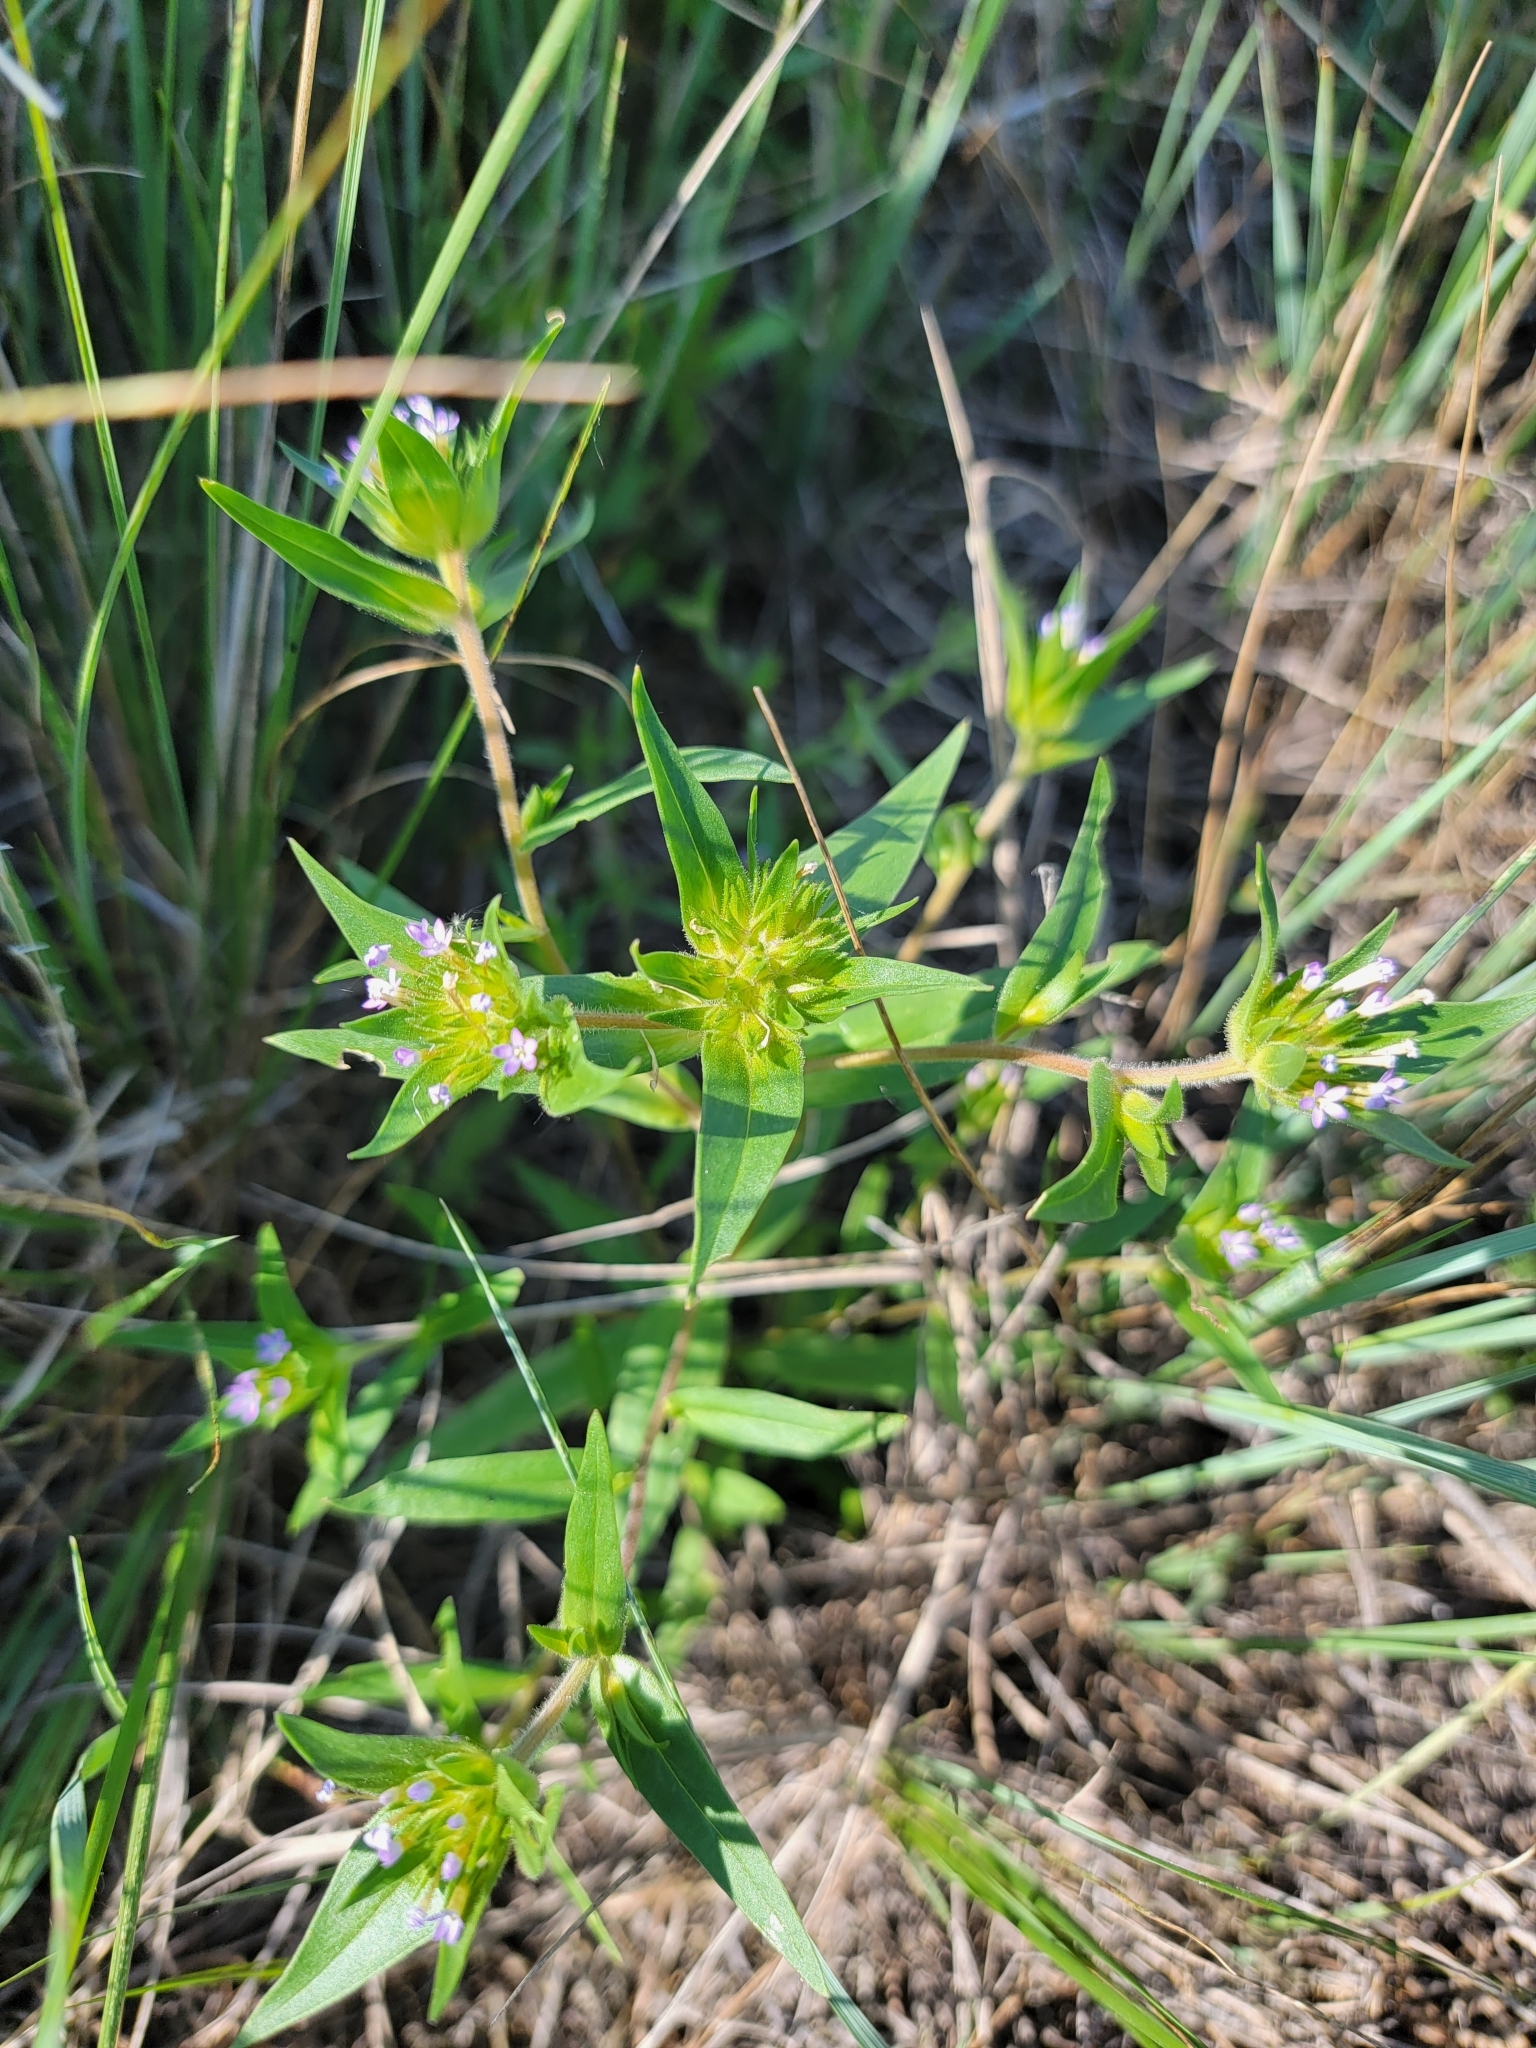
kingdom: Plantae
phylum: Tracheophyta
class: Magnoliopsida
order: Ericales
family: Polemoniaceae
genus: Collomia
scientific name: Collomia linearis
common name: Tiny trumpet
